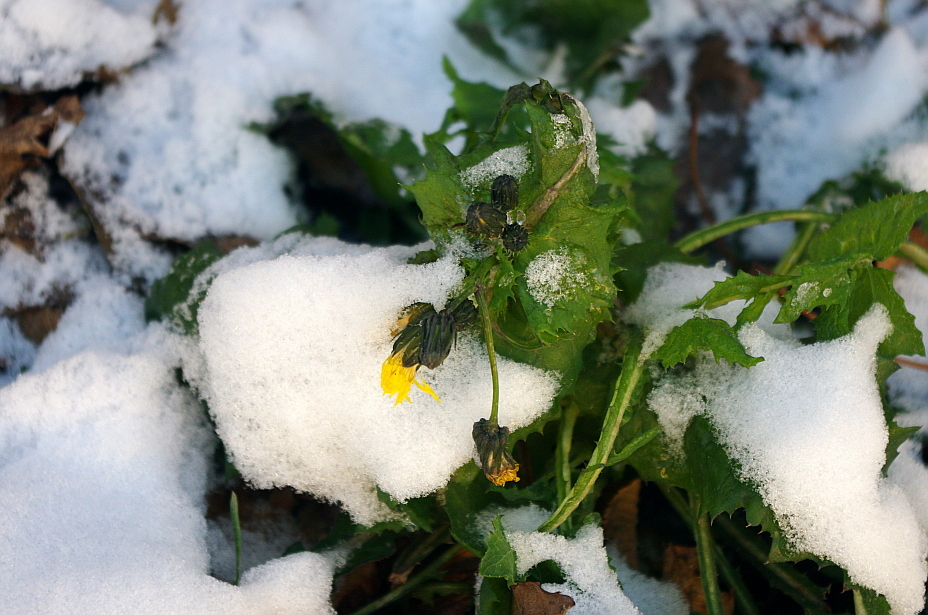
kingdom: Plantae
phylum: Tracheophyta
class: Magnoliopsida
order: Asterales
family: Asteraceae
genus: Sonchus
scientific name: Sonchus oleraceus
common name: Common sowthistle
